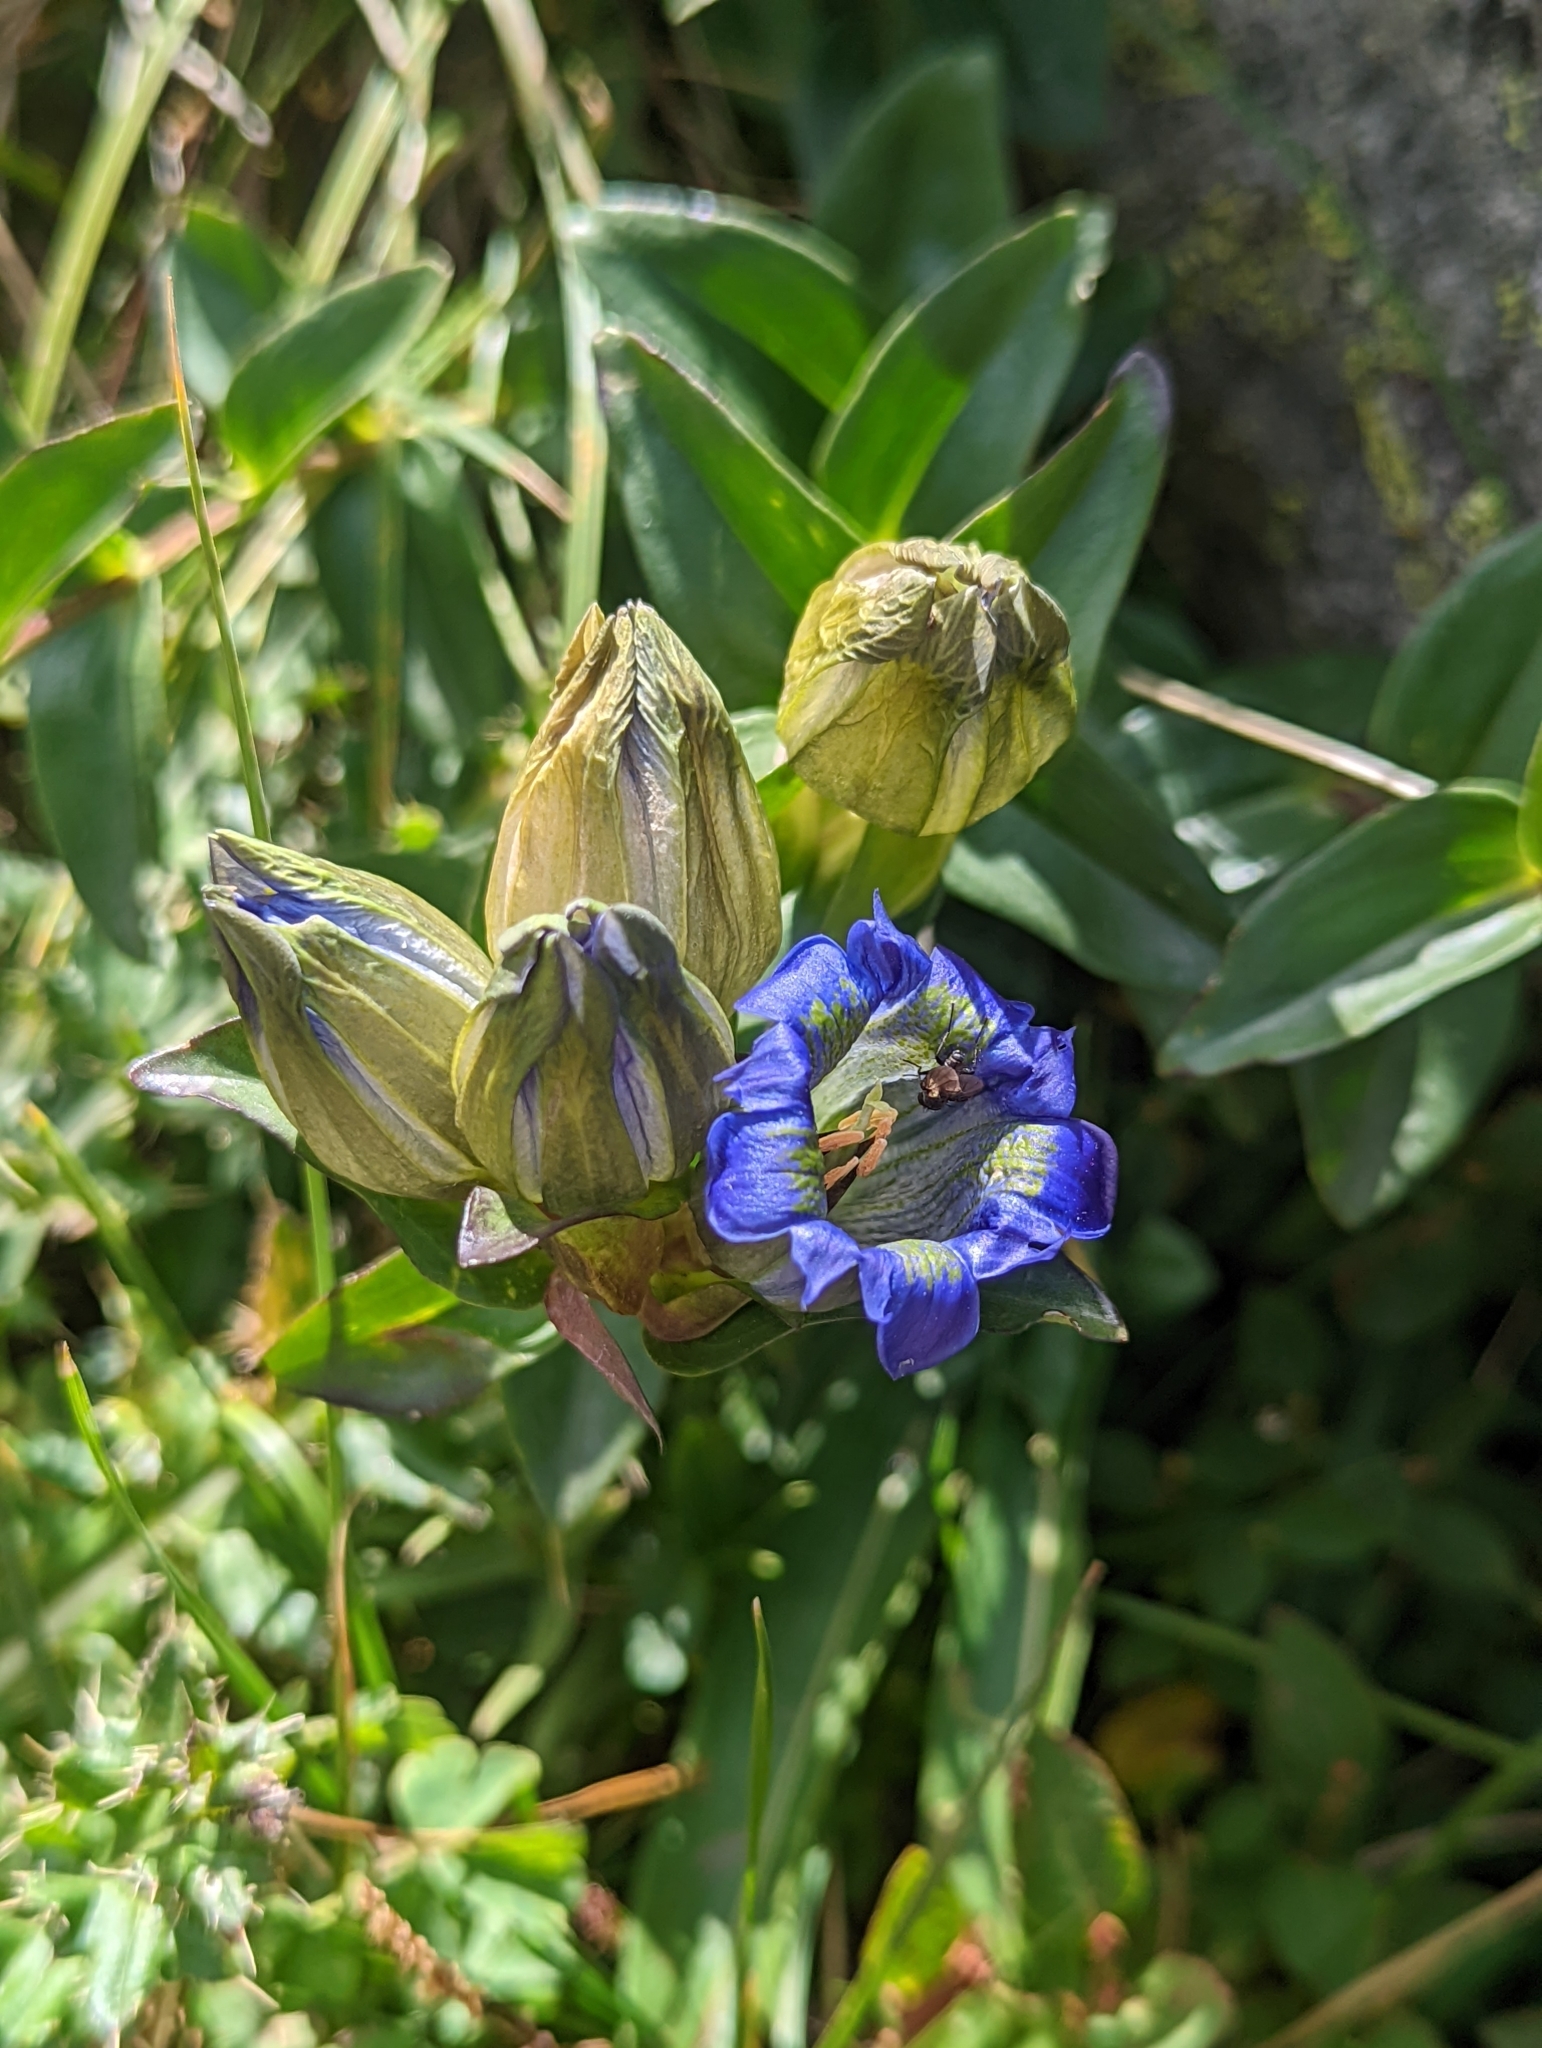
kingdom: Plantae
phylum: Tracheophyta
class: Magnoliopsida
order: Gentianales
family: Gentianaceae
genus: Gentiana
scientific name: Gentiana parryi
